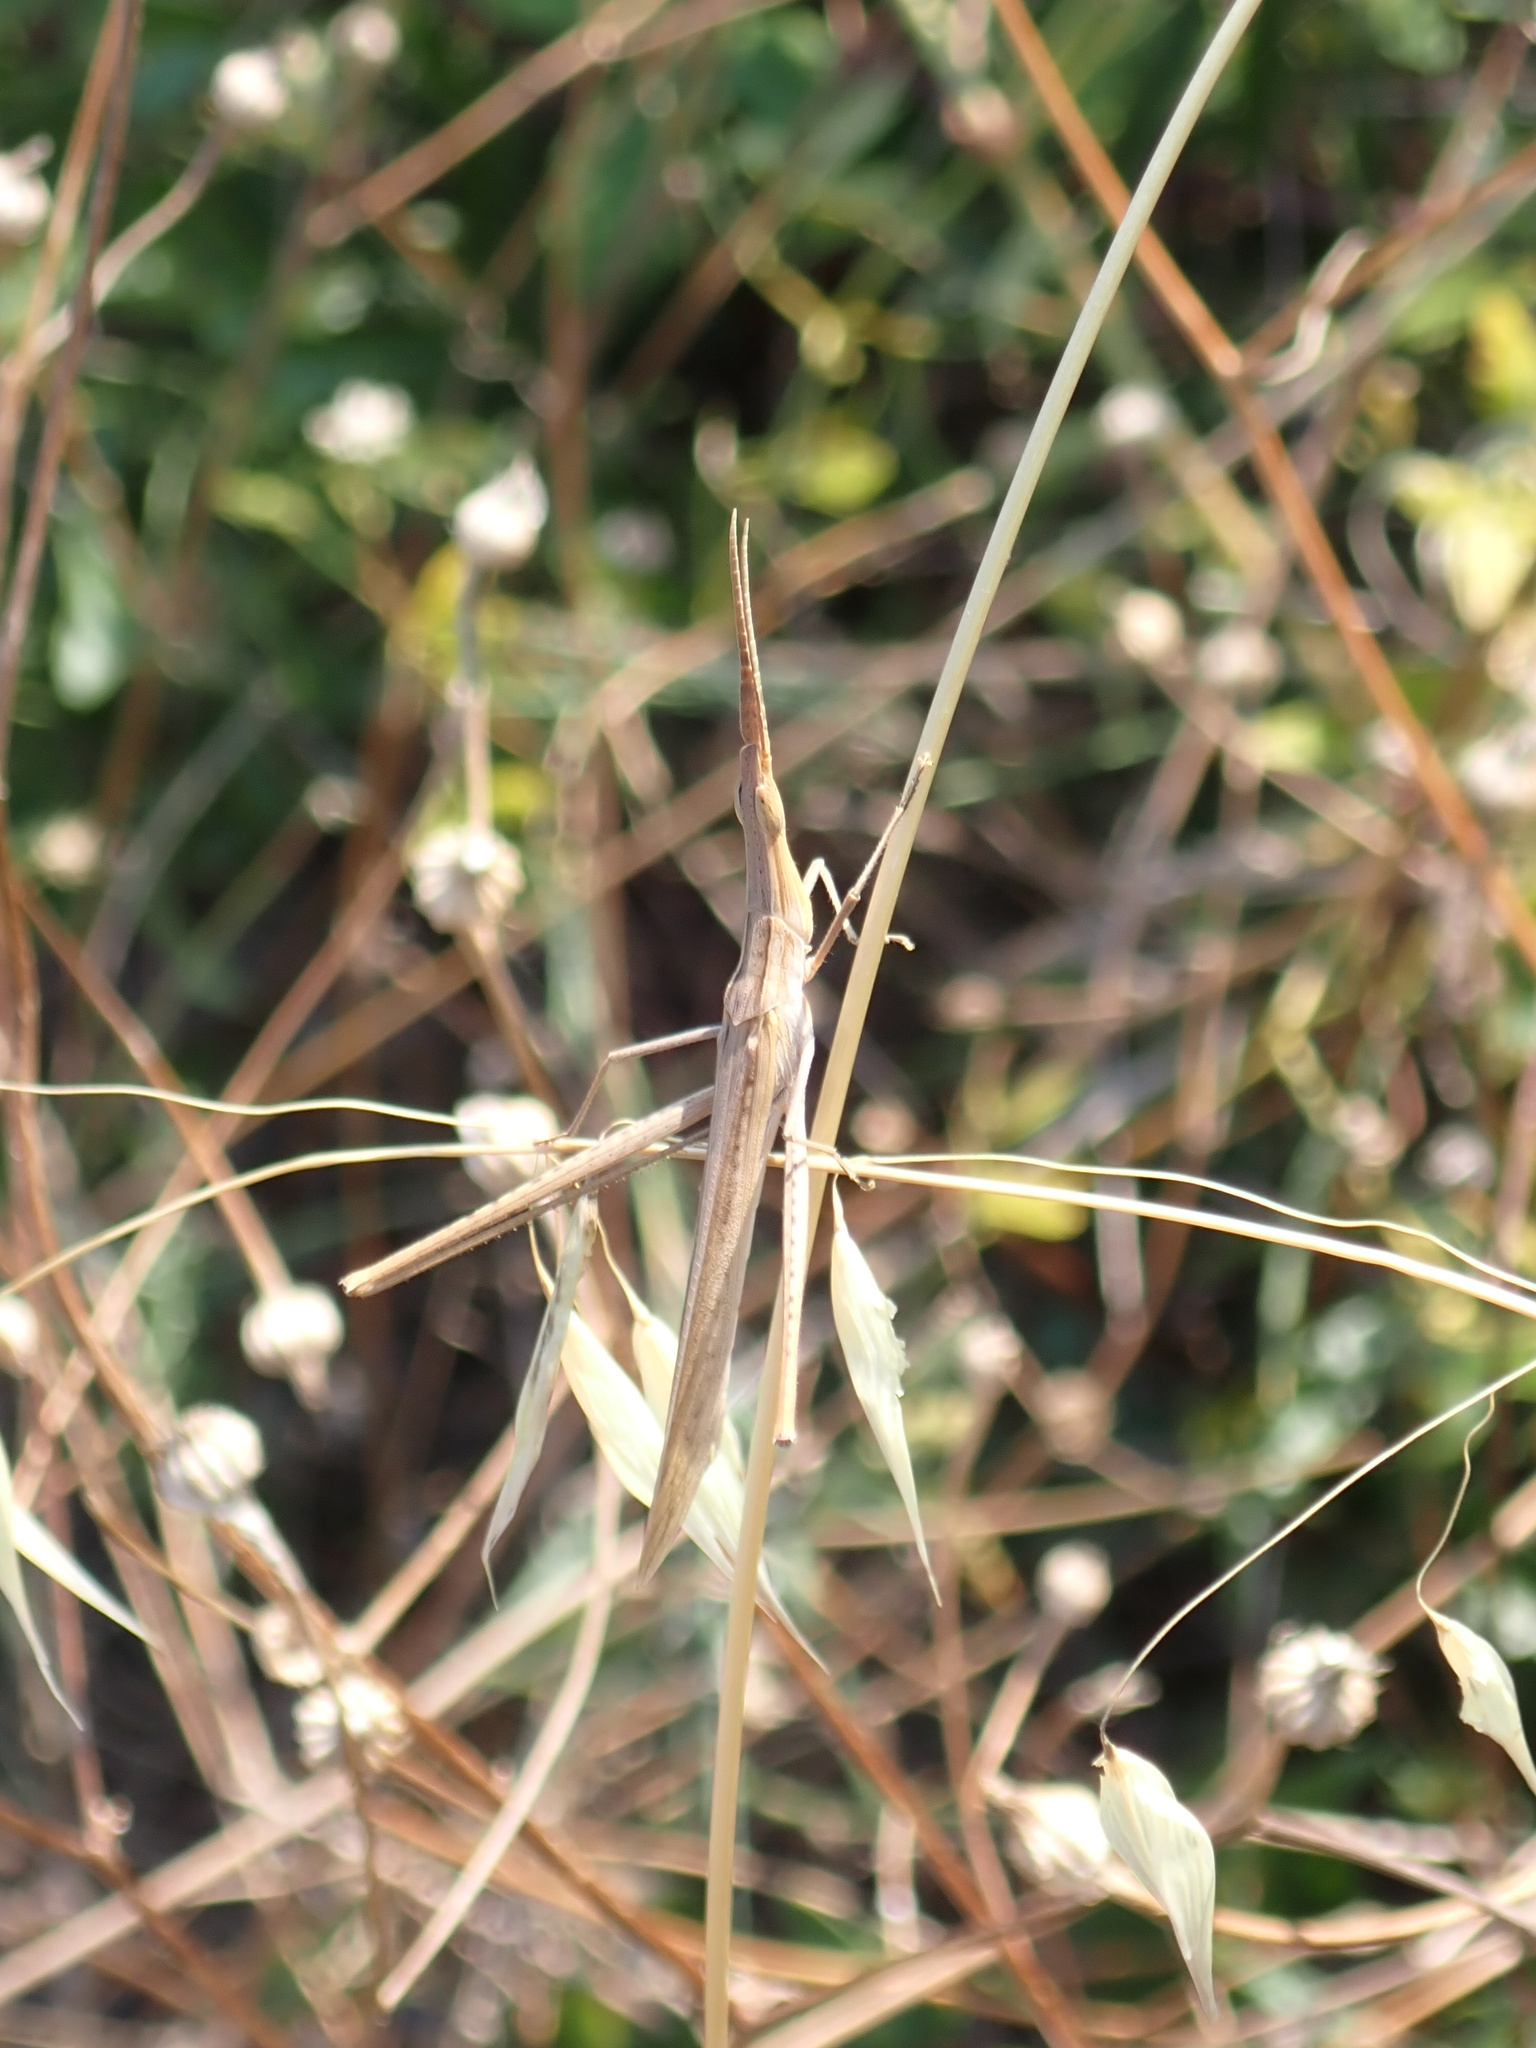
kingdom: Animalia
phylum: Arthropoda
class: Insecta
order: Orthoptera
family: Acrididae
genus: Acrida
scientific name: Acrida ungarica
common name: Common cone-headed grasshopper
